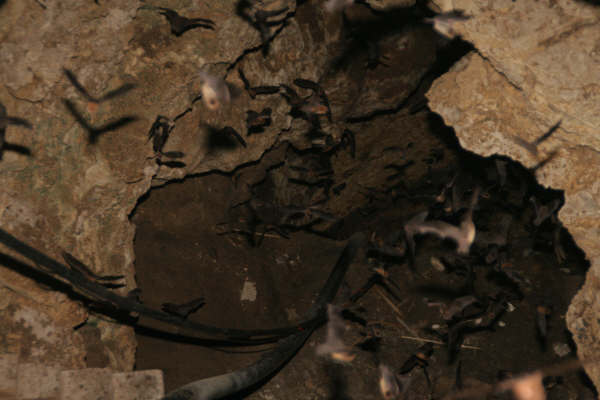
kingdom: Animalia
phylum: Chordata
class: Mammalia
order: Chiroptera
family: Mormoopidae
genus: Mormoops
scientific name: Mormoops megalophylla
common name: Peters's ghost-faced bat
